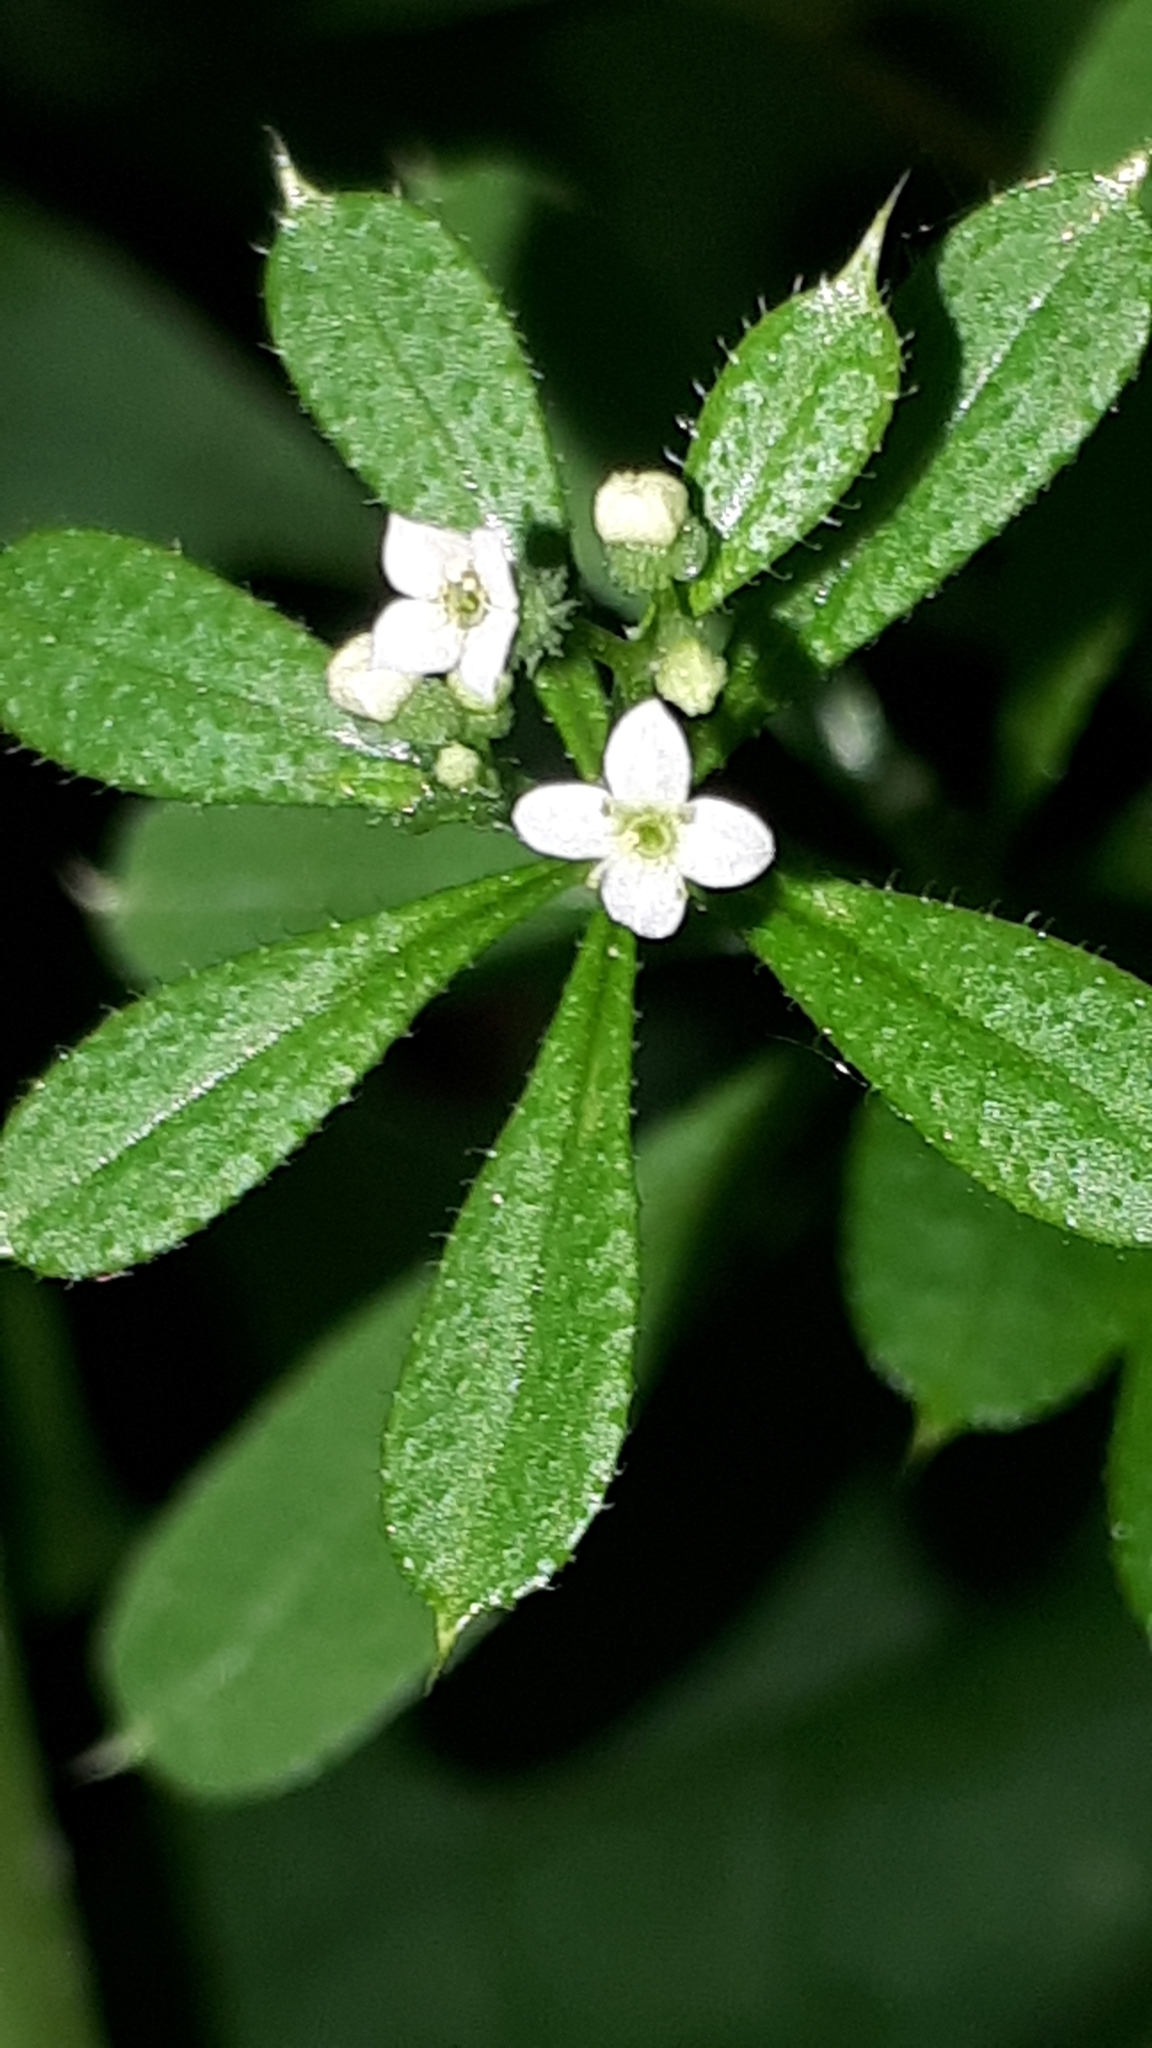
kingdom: Plantae
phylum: Tracheophyta
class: Magnoliopsida
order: Gentianales
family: Rubiaceae
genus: Galium
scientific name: Galium aparine
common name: Cleavers
